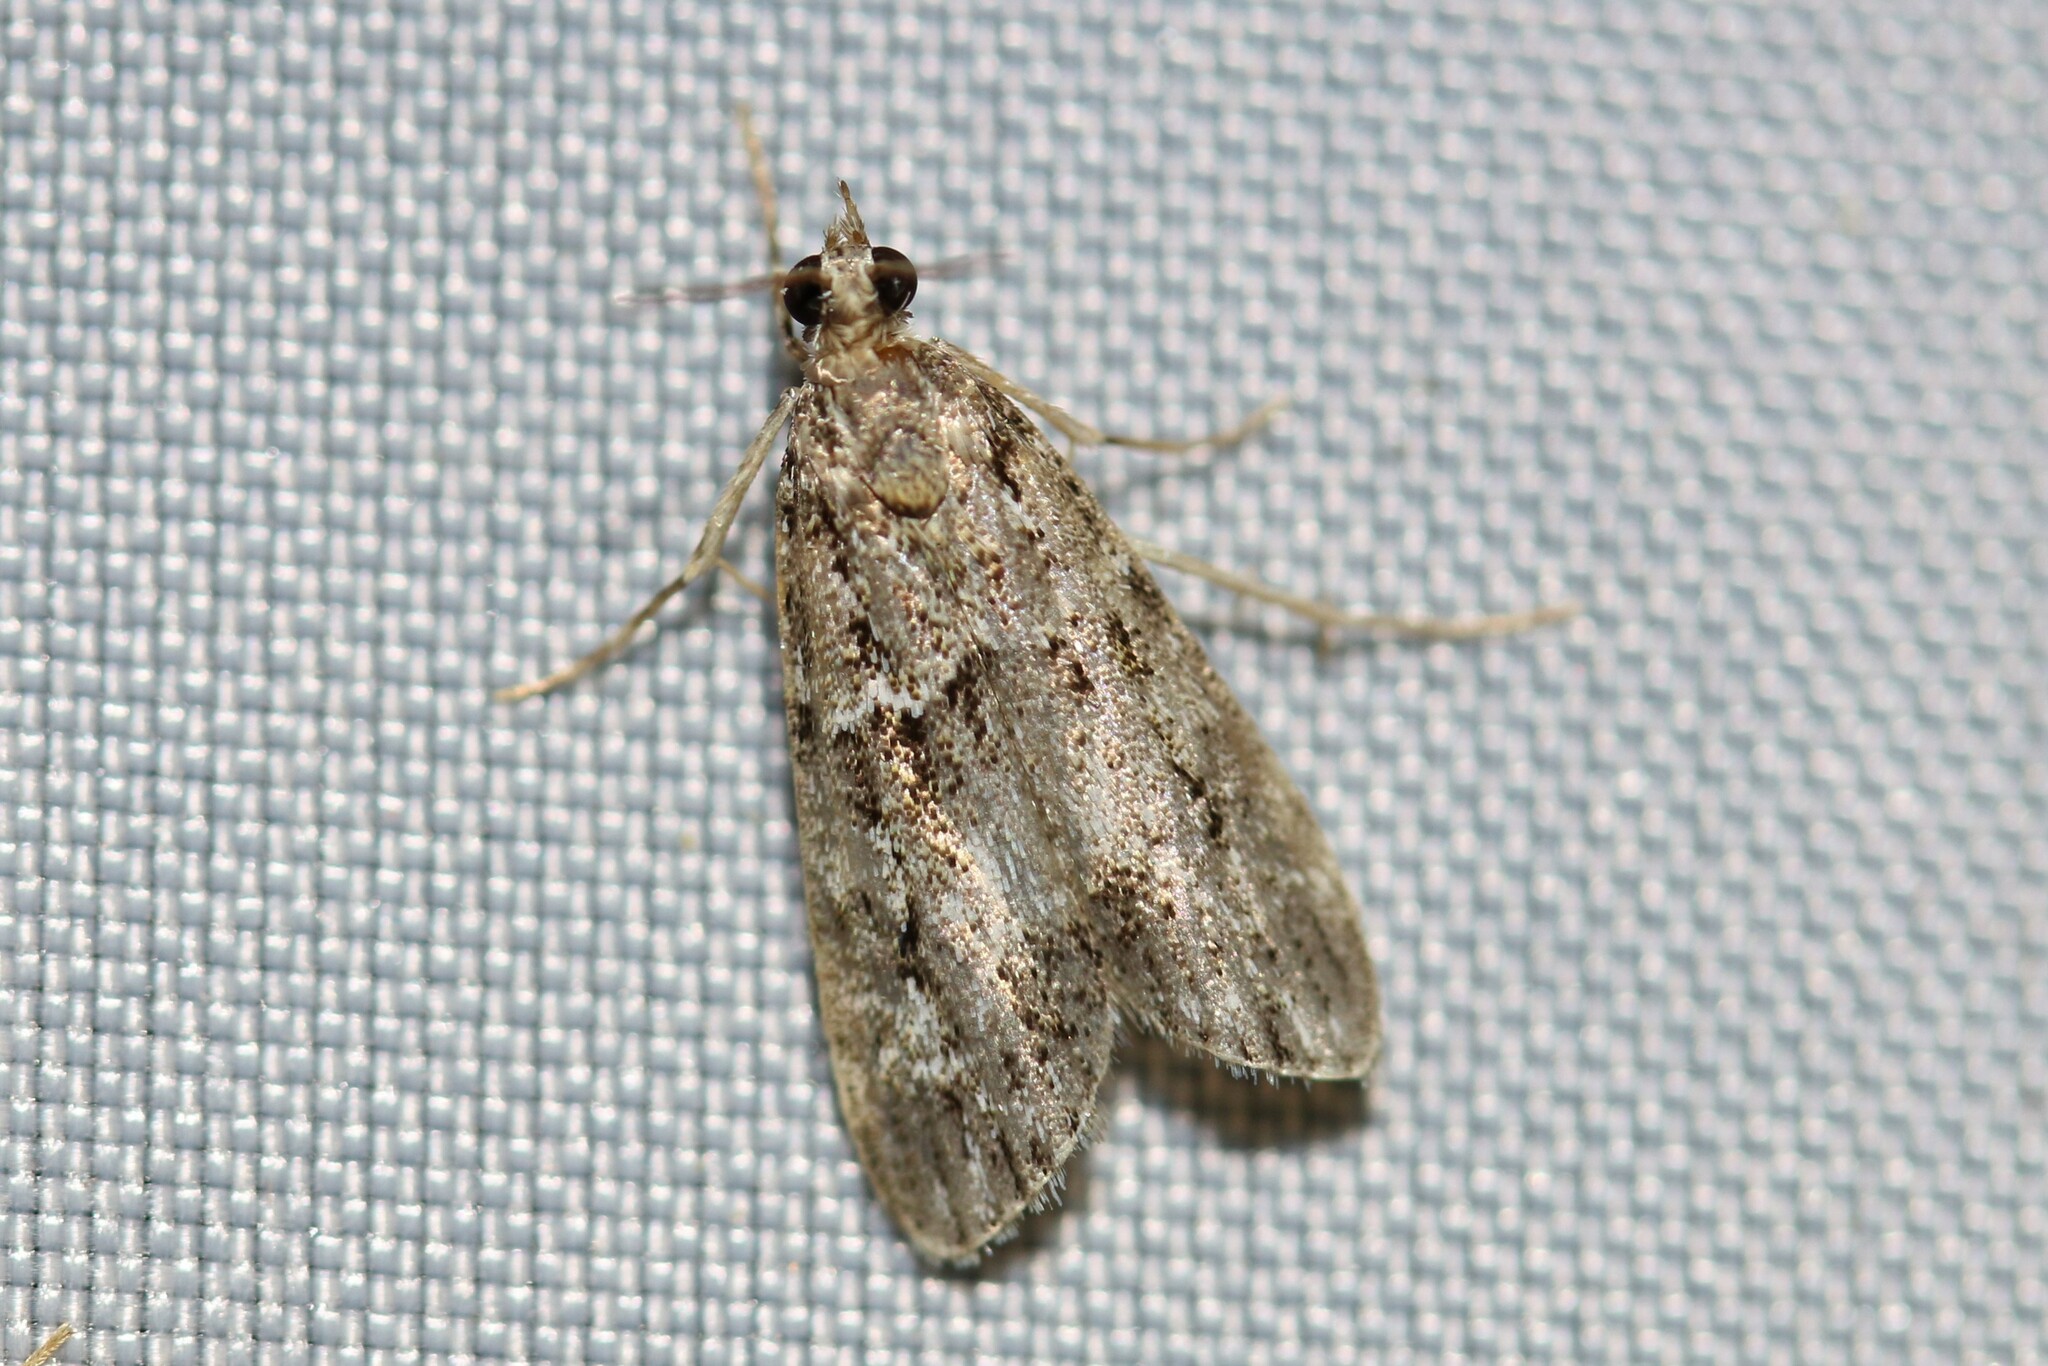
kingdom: Animalia
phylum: Arthropoda
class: Insecta
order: Lepidoptera
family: Crambidae
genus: Eudonia
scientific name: Eudonia mercurella
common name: Small grey
